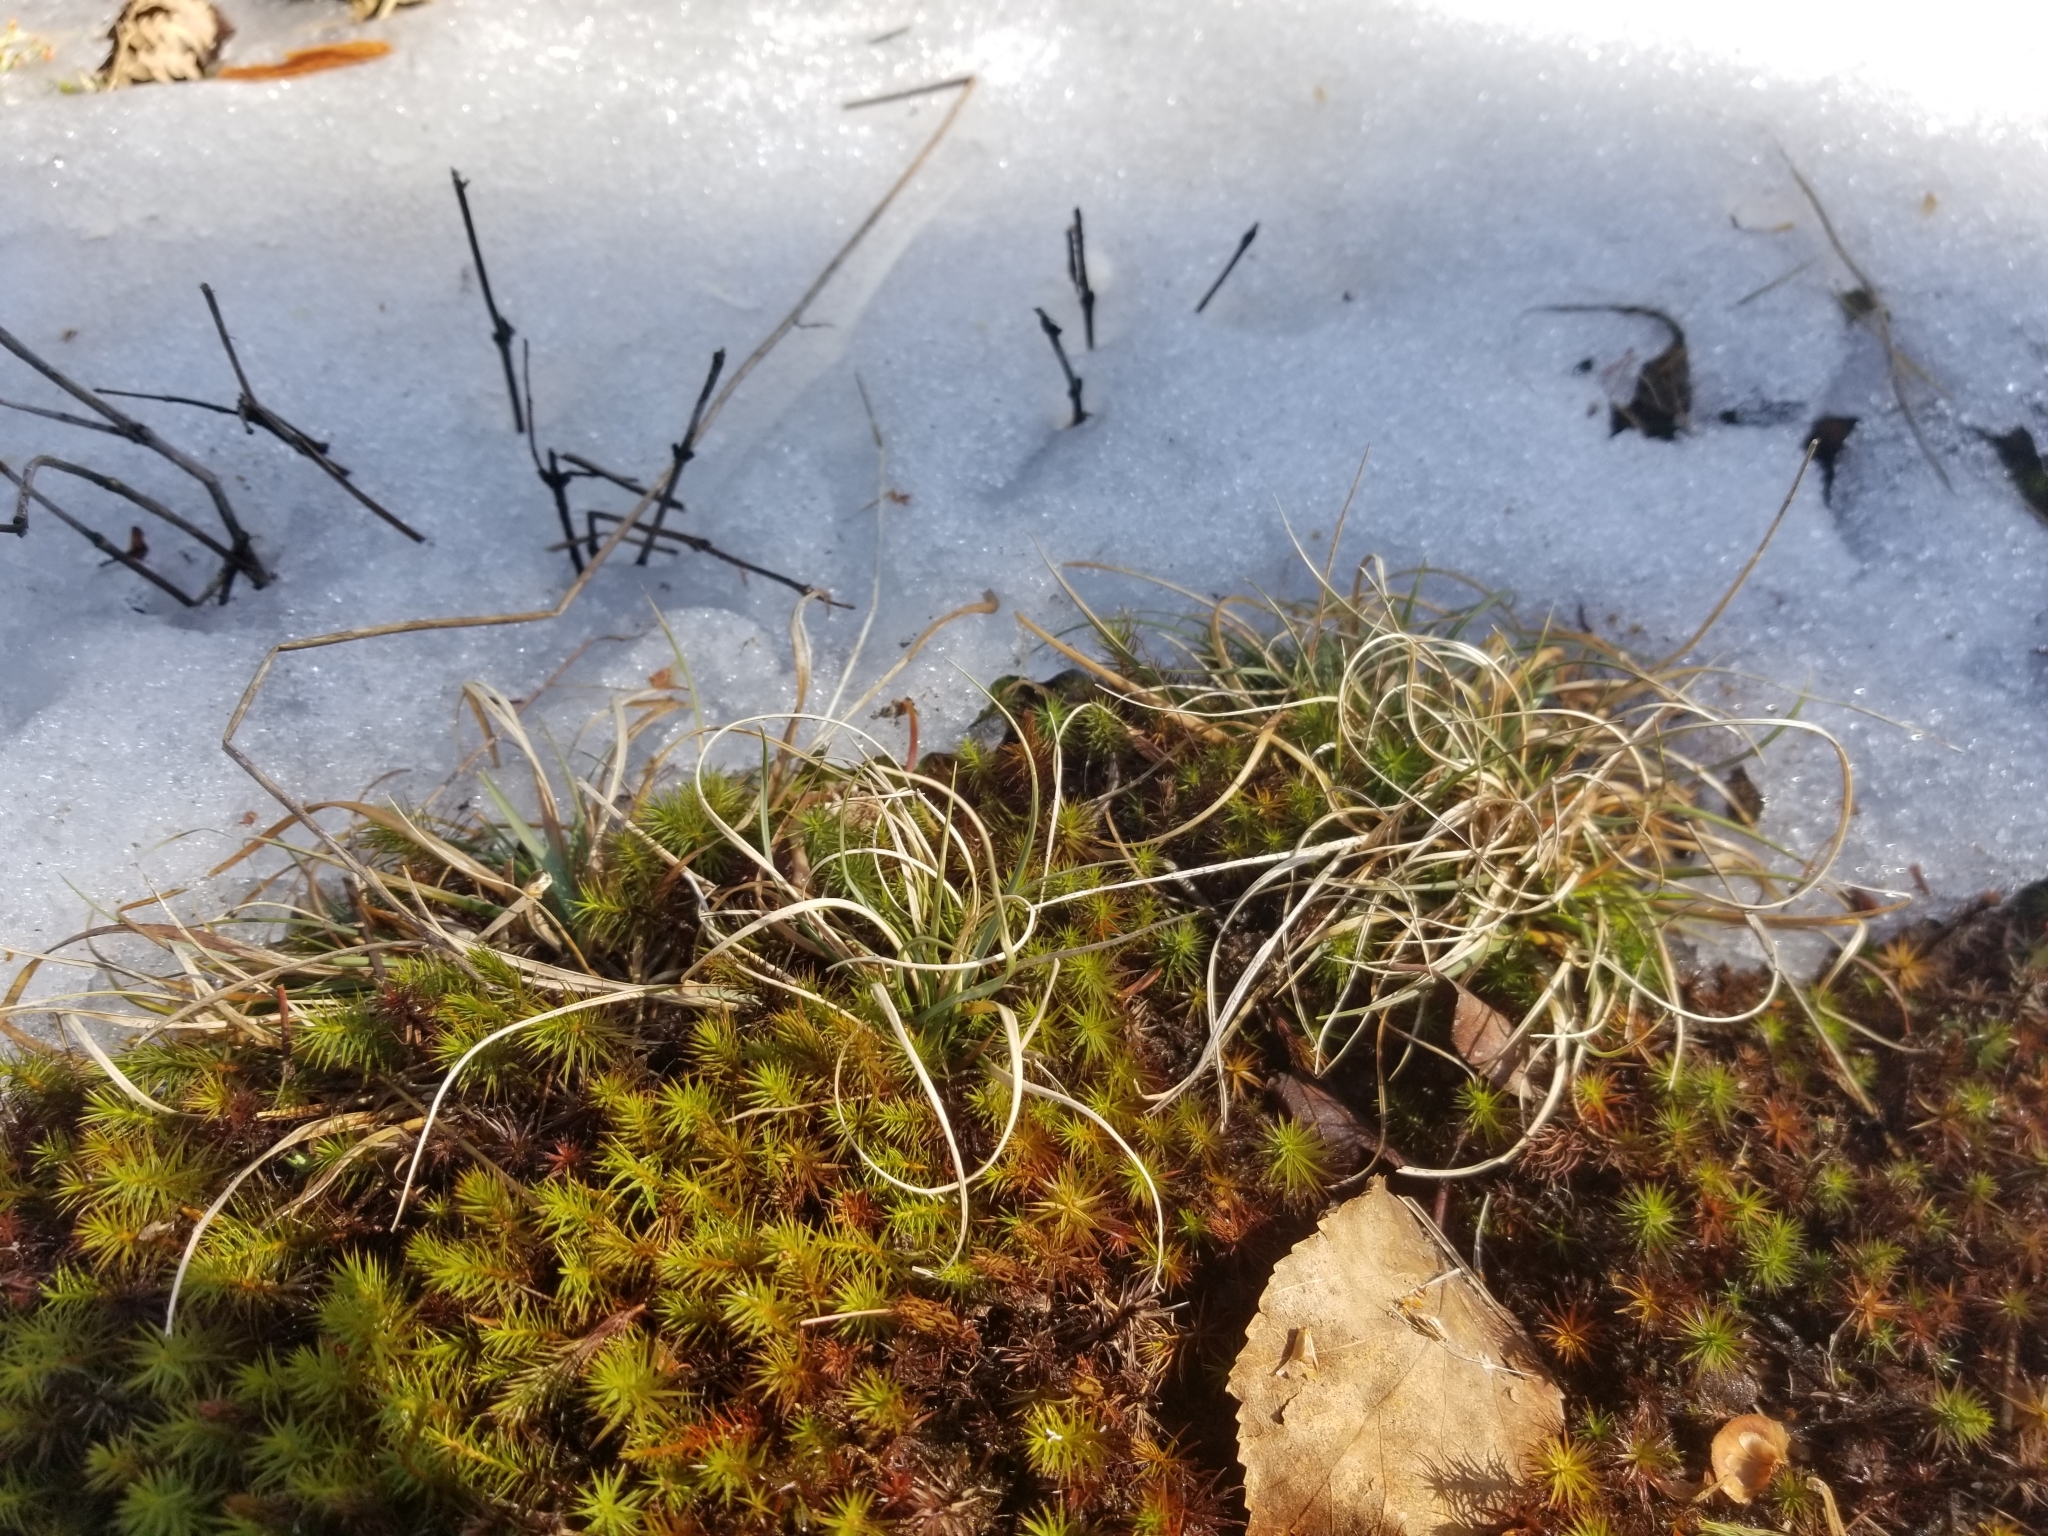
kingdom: Plantae
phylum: Tracheophyta
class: Liliopsida
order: Poales
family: Poaceae
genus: Danthonia
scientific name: Danthonia spicata
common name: Common wild oatgrass
